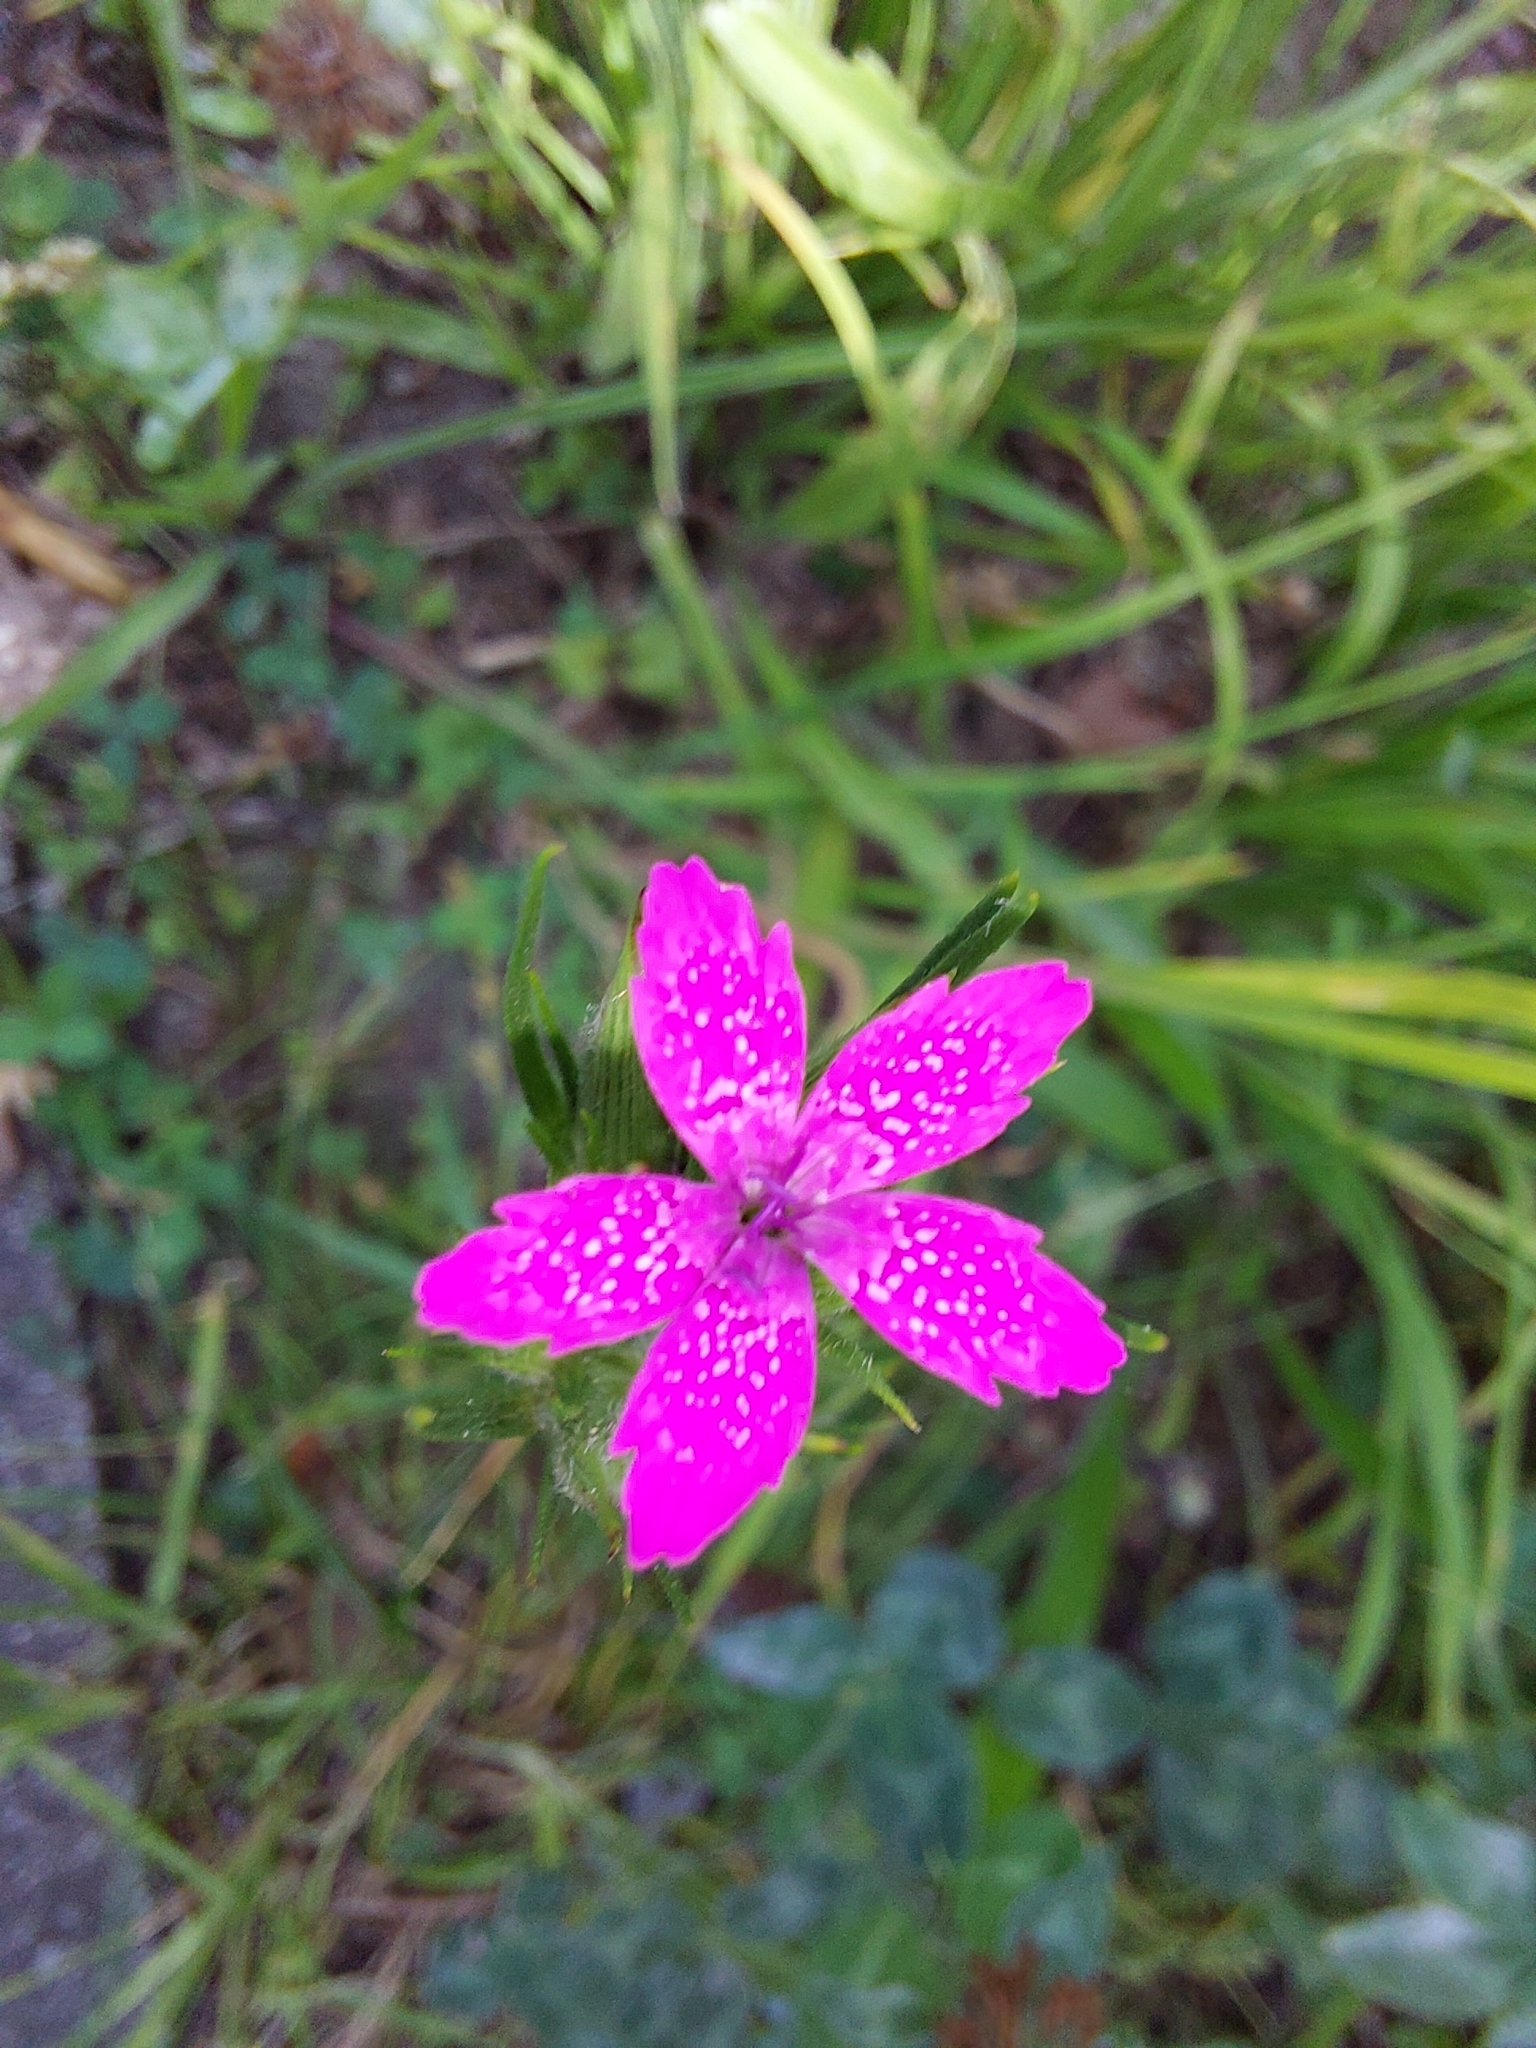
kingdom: Plantae
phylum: Tracheophyta
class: Magnoliopsida
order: Caryophyllales
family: Caryophyllaceae
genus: Dianthus
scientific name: Dianthus armeria
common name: Deptford pink
